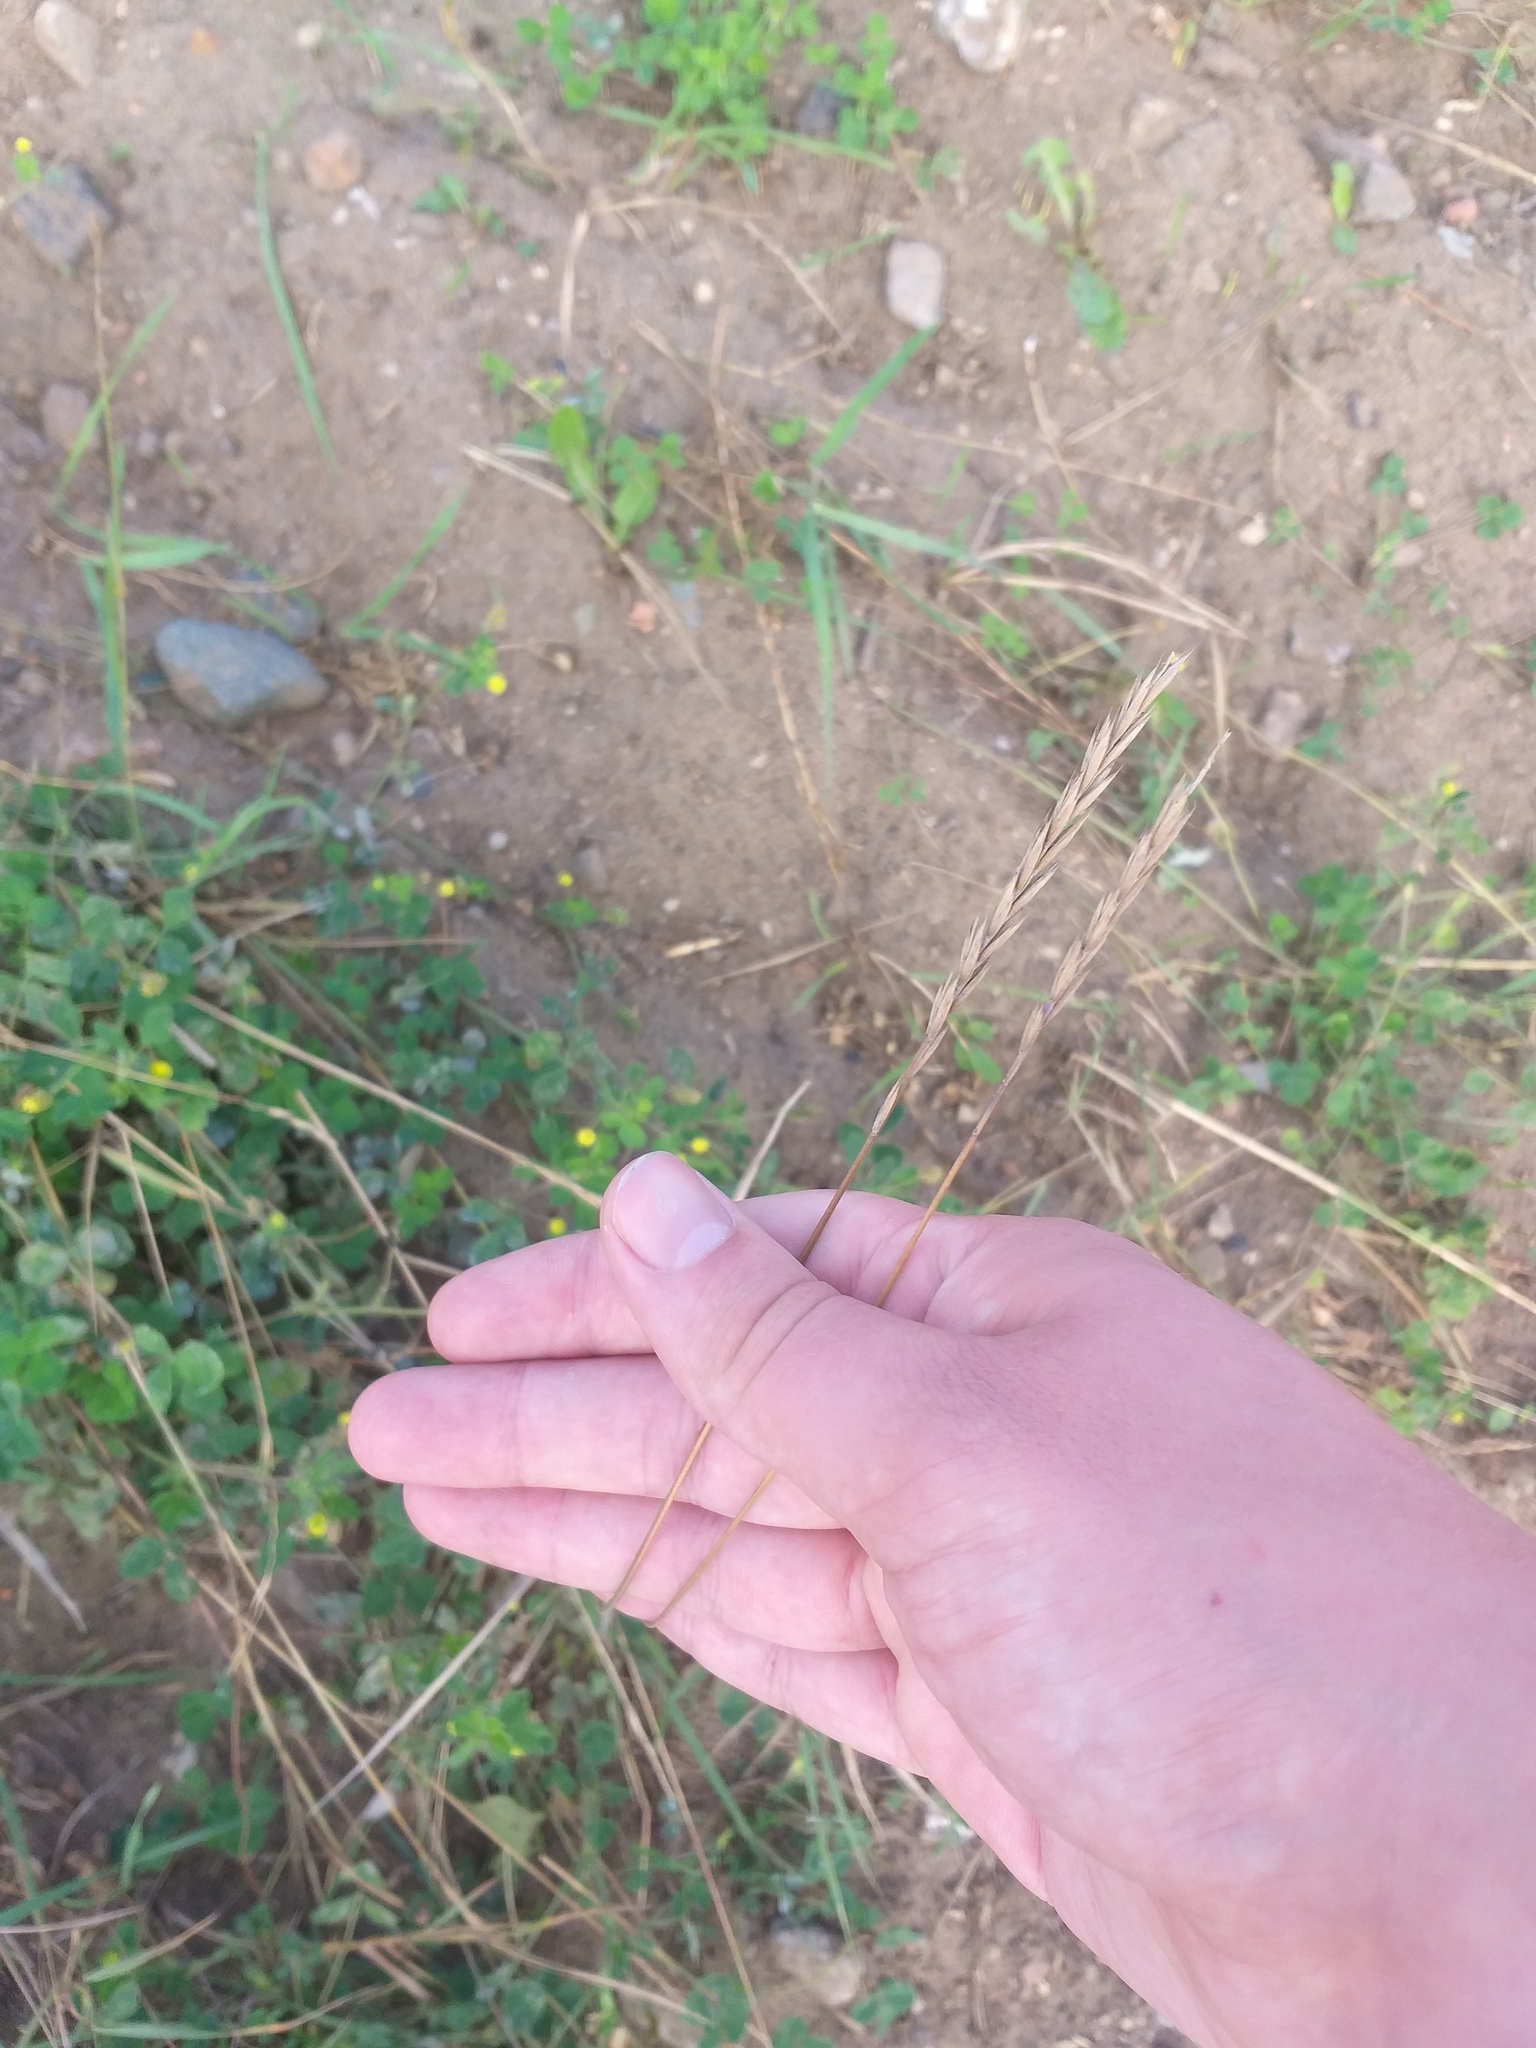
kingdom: Plantae
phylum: Tracheophyta
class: Liliopsida
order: Poales
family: Poaceae
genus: Elymus
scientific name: Elymus repens
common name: Quackgrass
